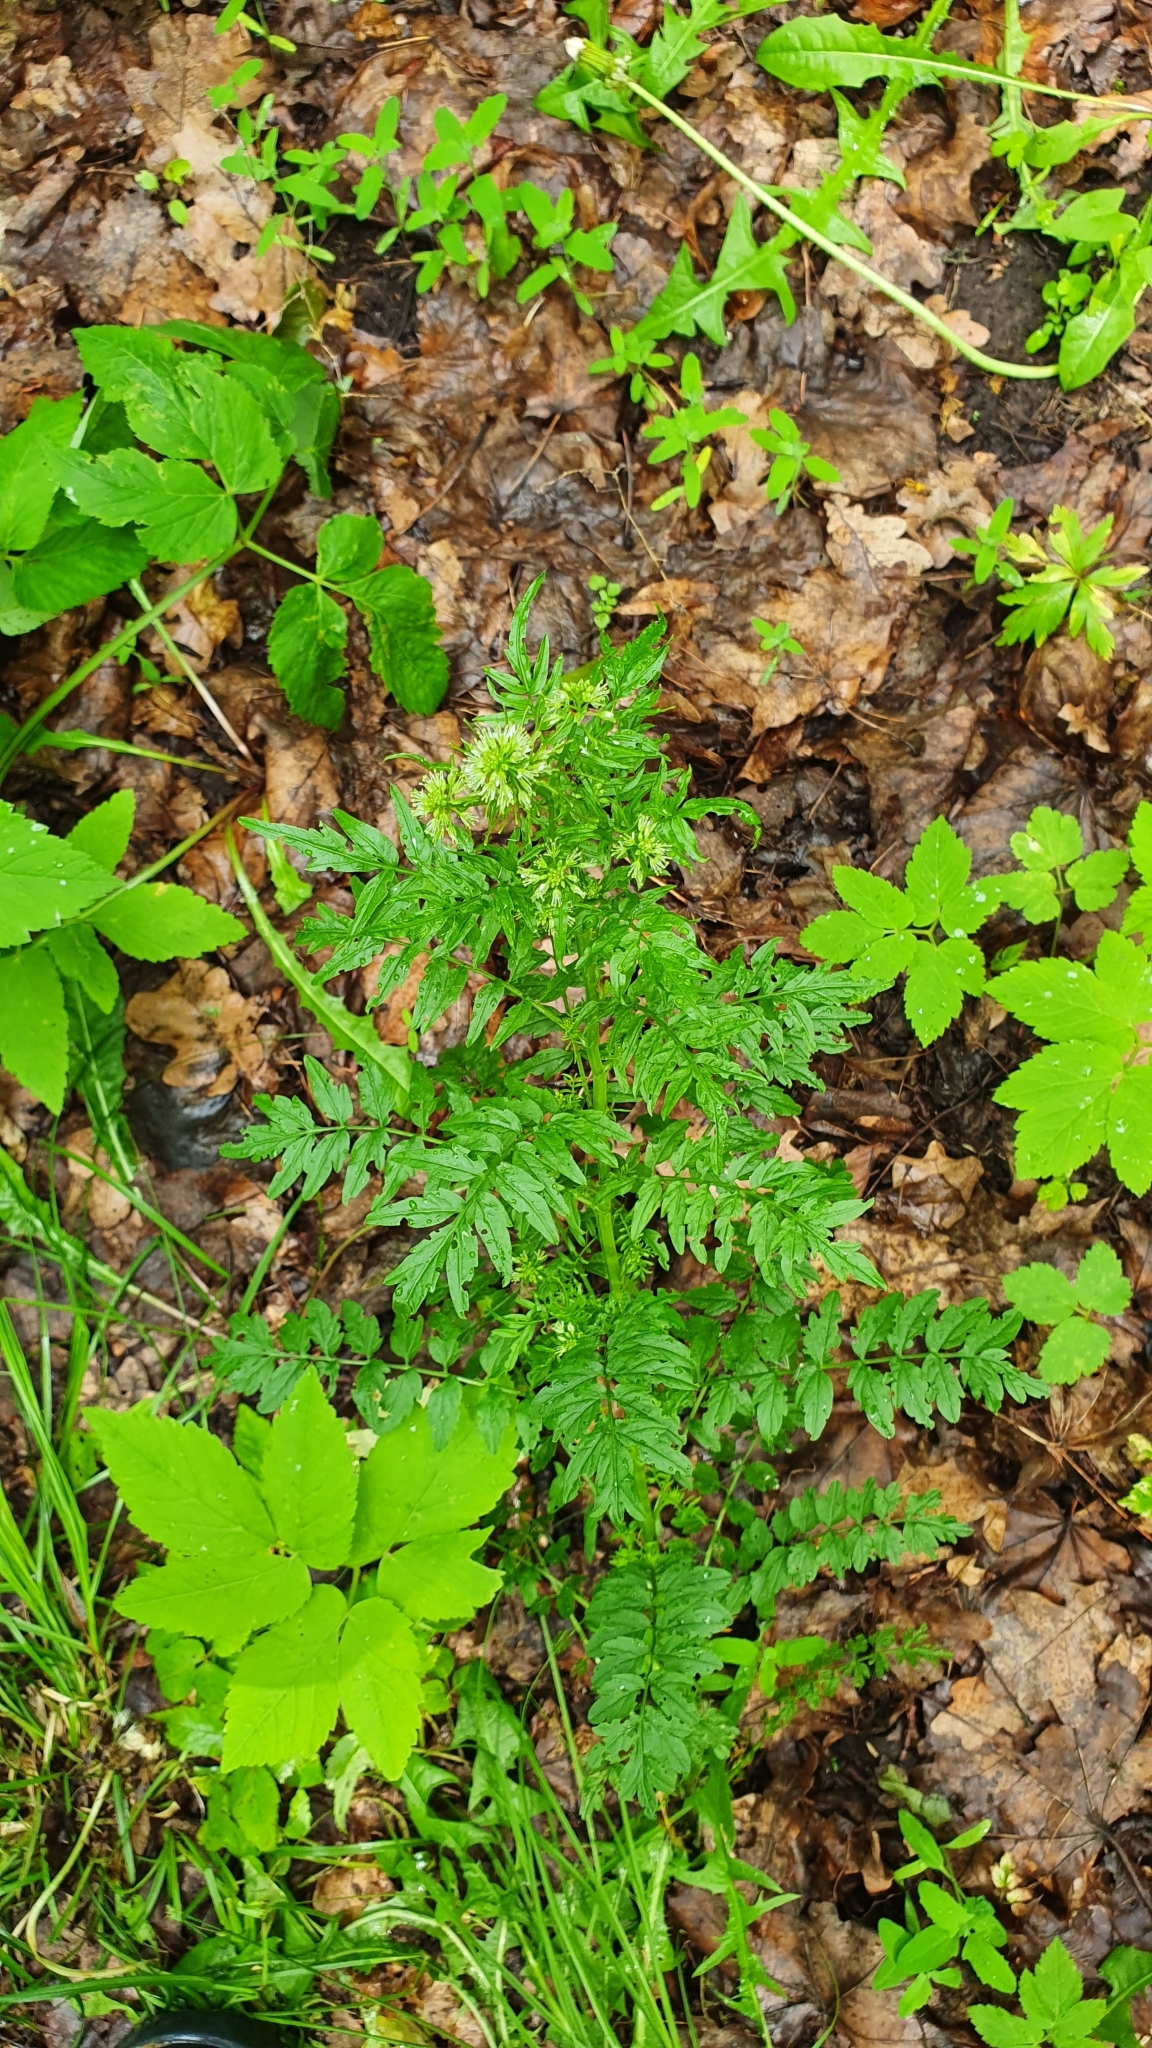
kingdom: Plantae
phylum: Tracheophyta
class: Magnoliopsida
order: Brassicales
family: Brassicaceae
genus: Cardamine
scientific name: Cardamine impatiens
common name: Narrow-leaved bitter-cress
